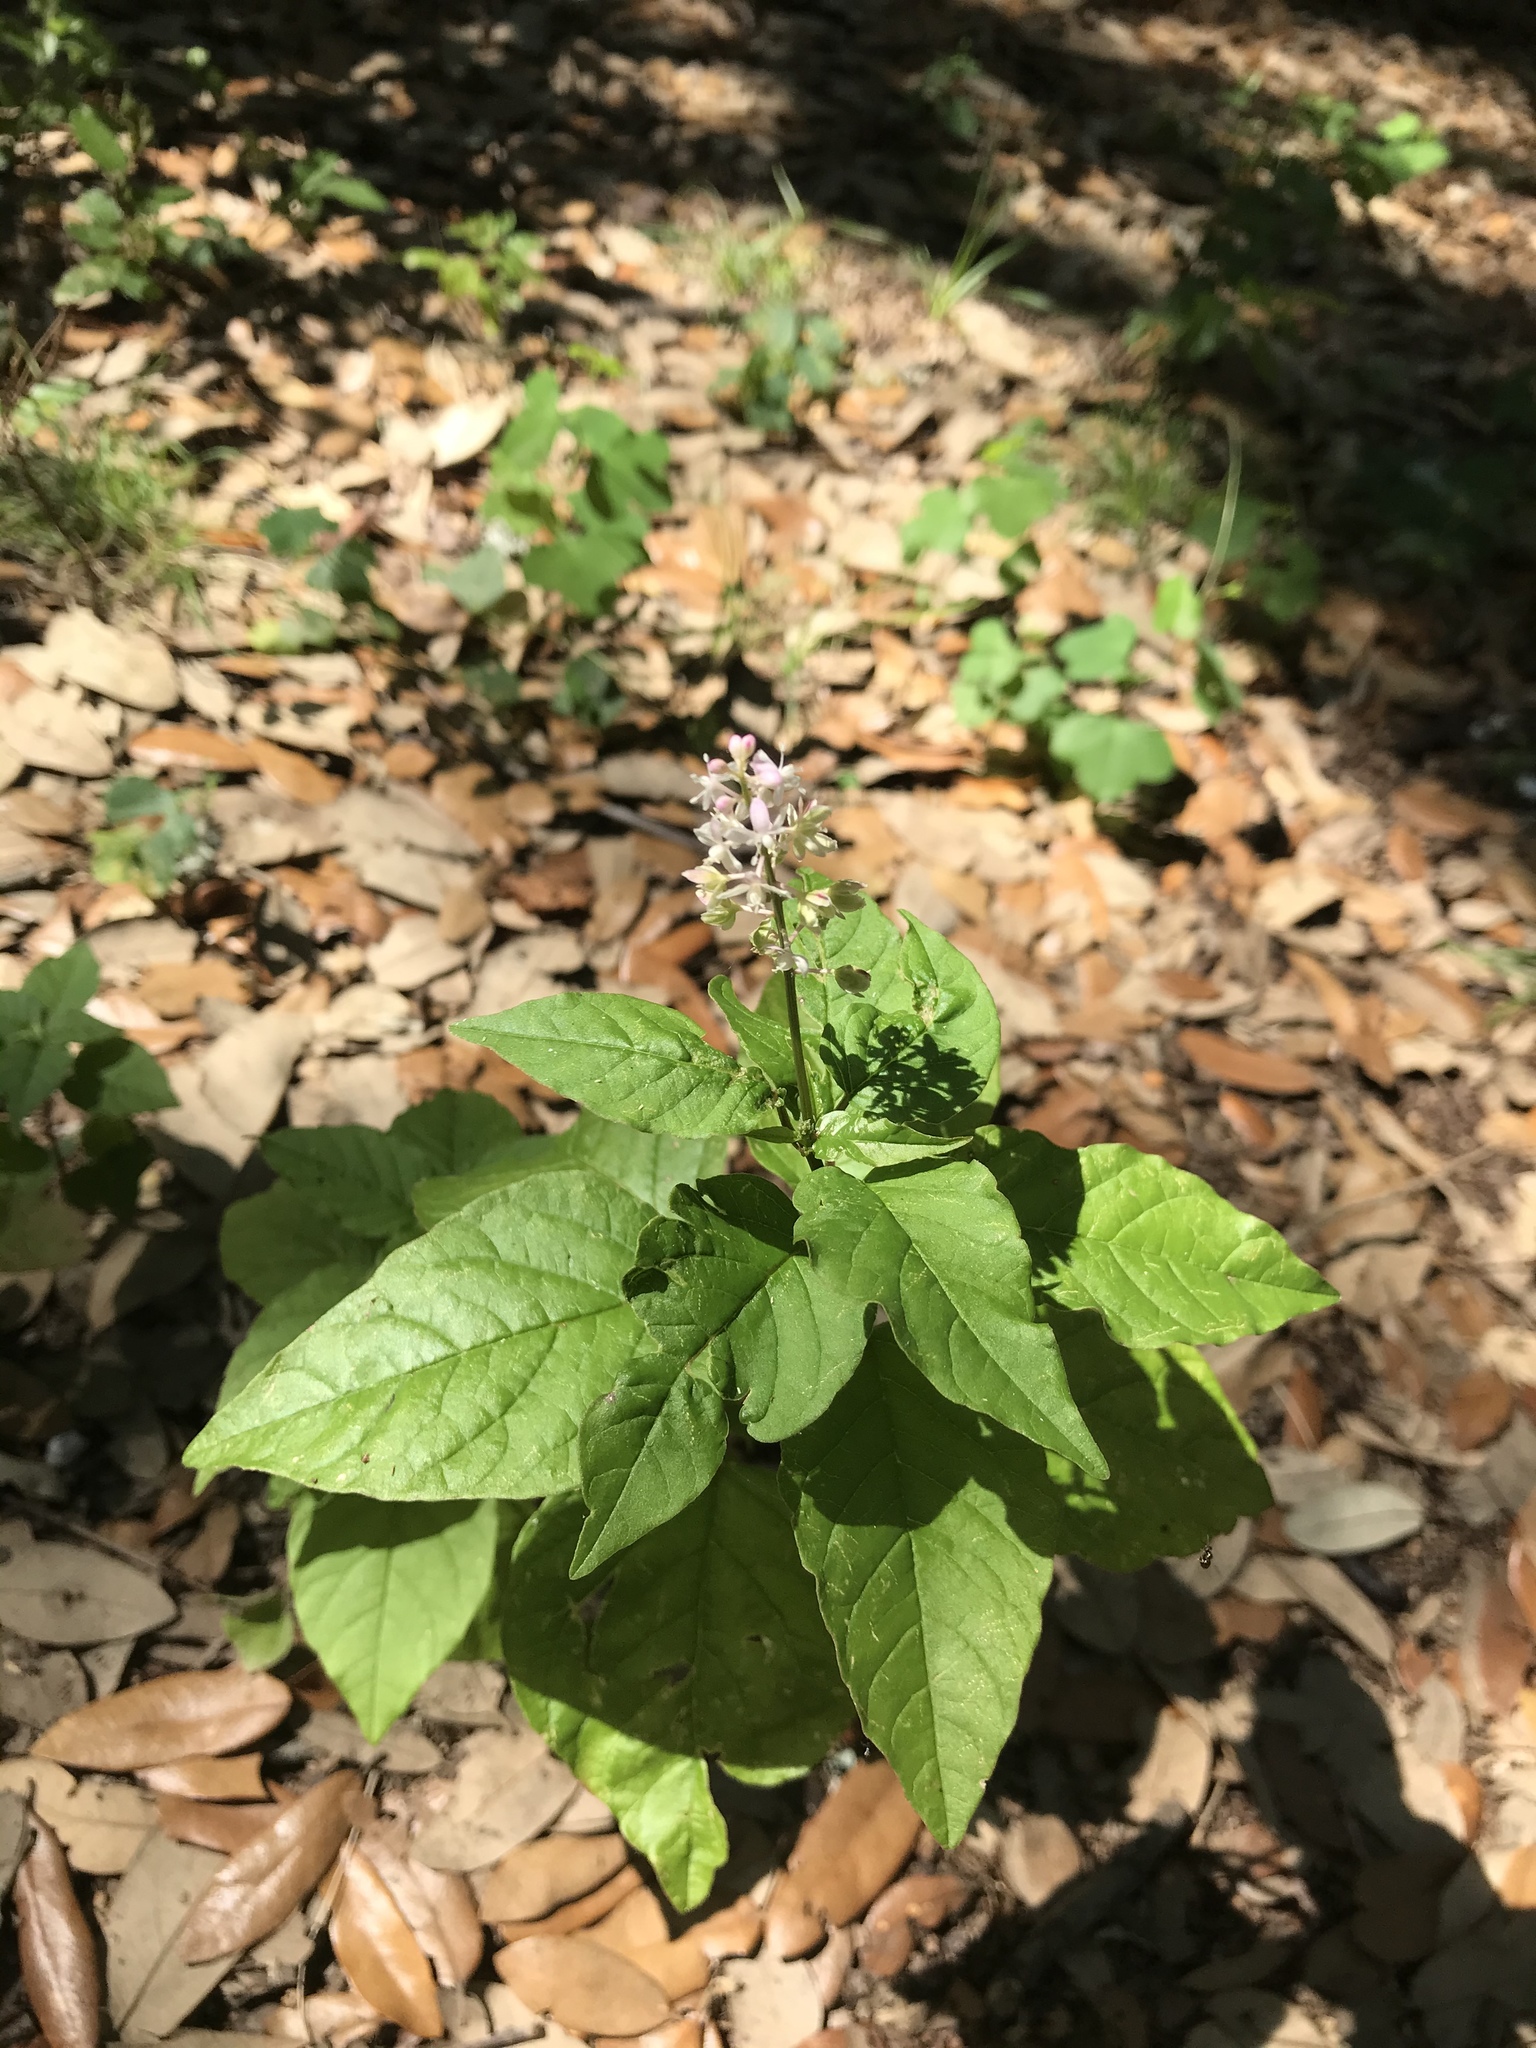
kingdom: Plantae
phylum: Tracheophyta
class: Magnoliopsida
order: Caryophyllales
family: Phytolaccaceae
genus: Rivina
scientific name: Rivina humilis
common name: Rougeplant
